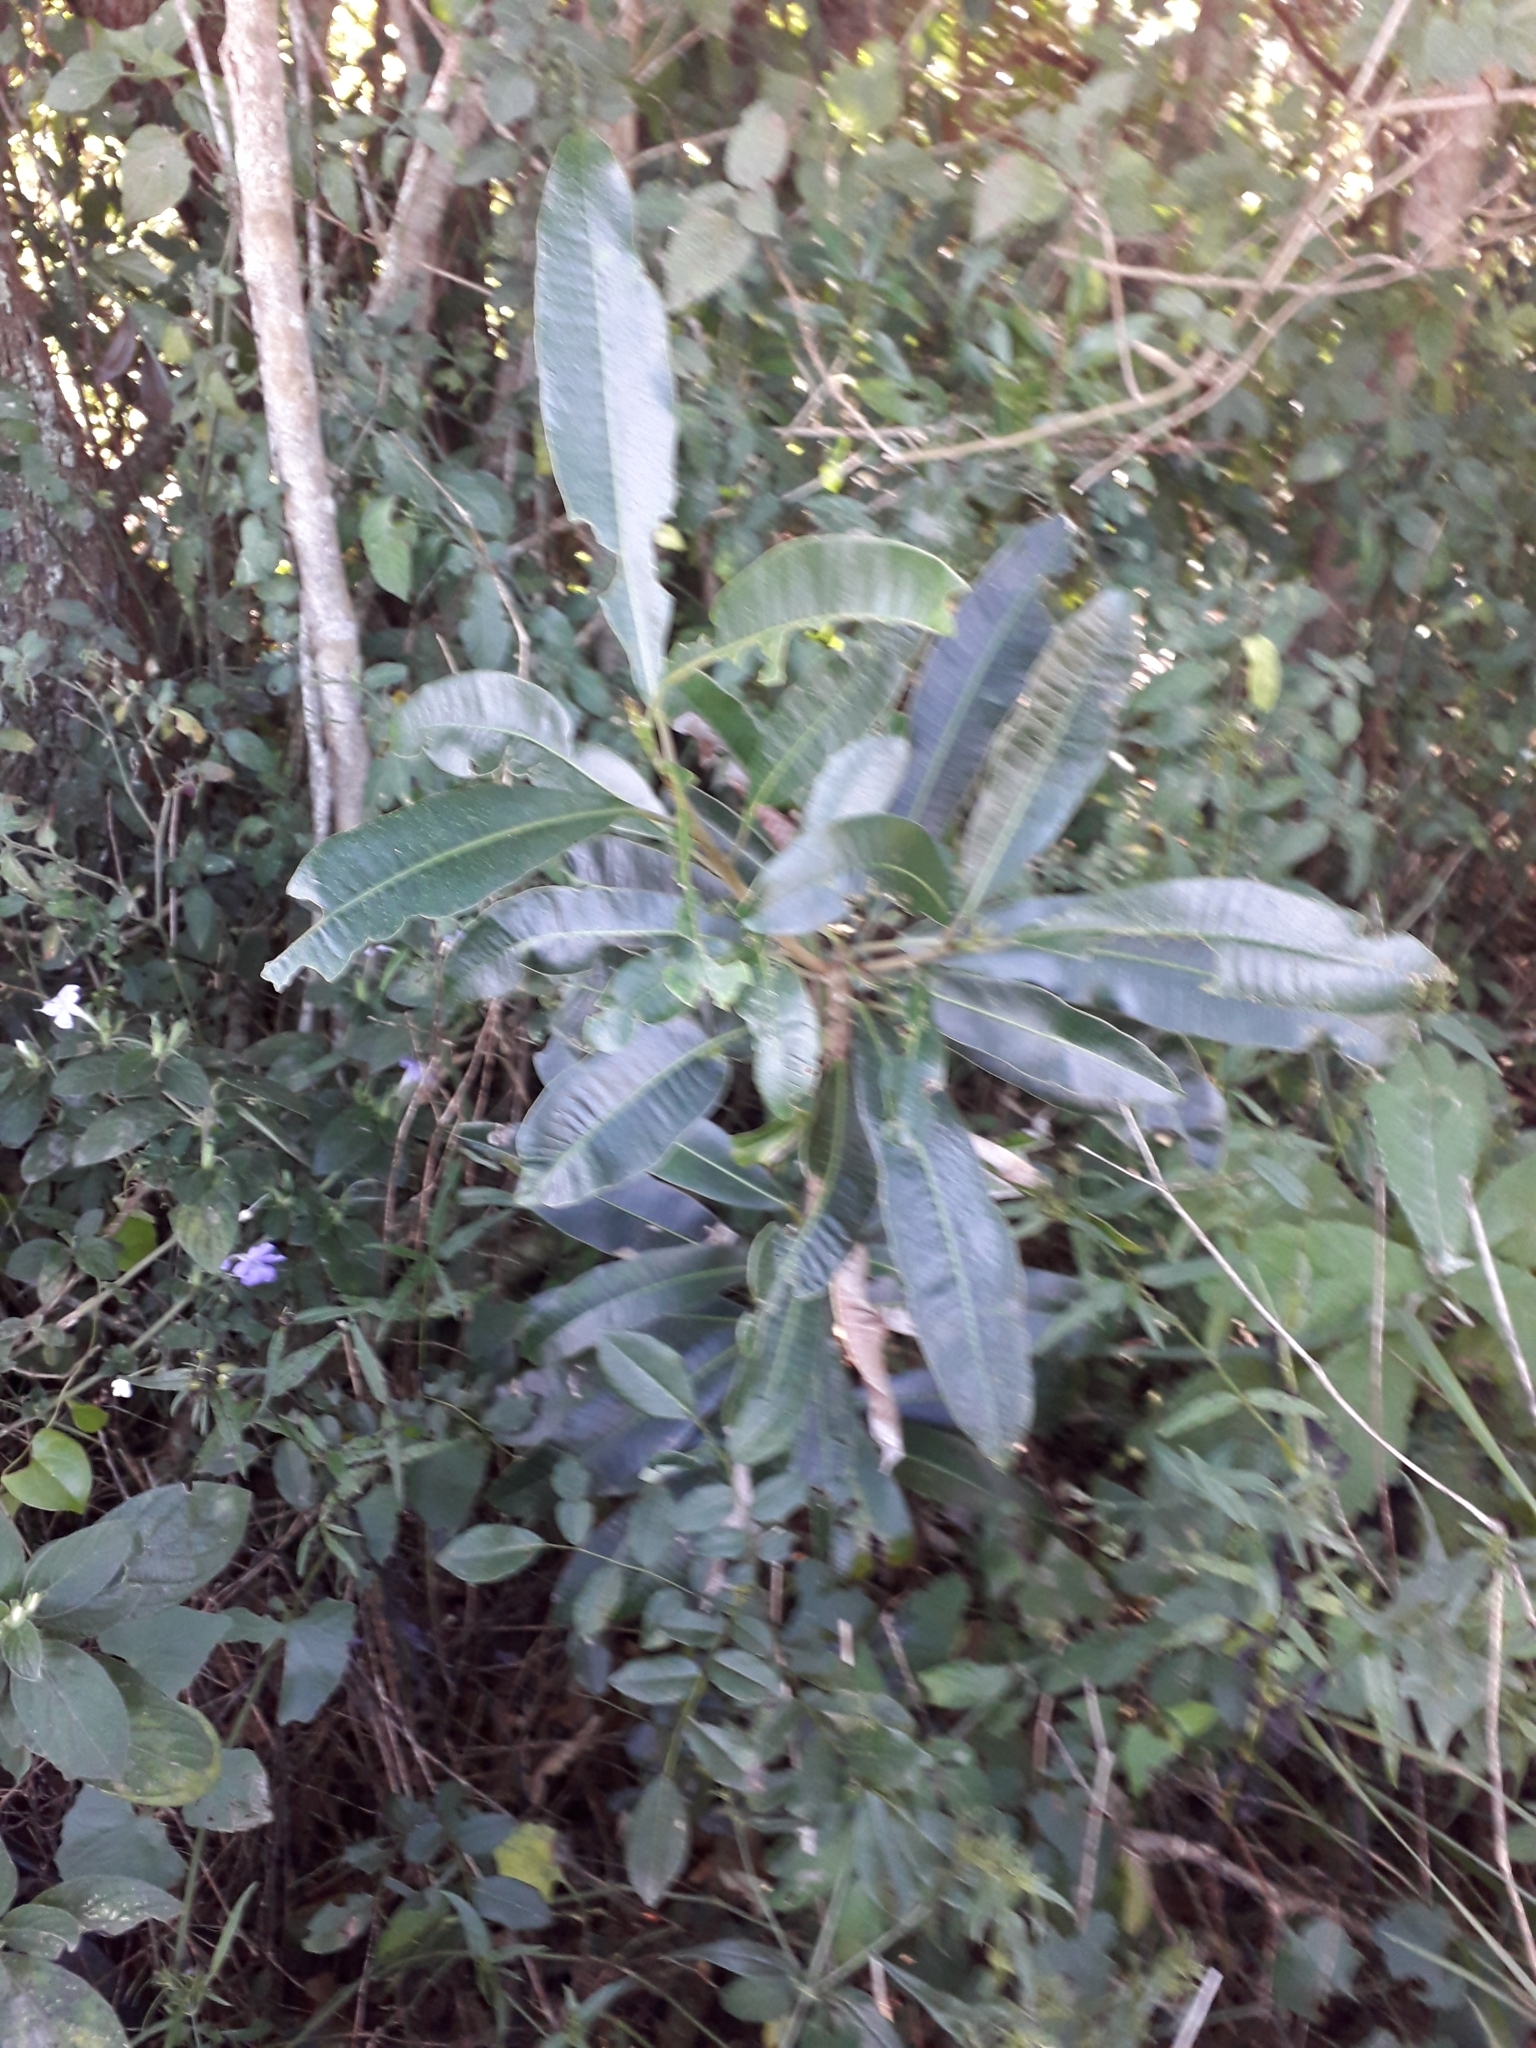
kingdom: Plantae
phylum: Tracheophyta
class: Magnoliopsida
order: Sapindales
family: Anacardiaceae
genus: Protorhus
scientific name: Protorhus longifolia
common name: Red-beech
